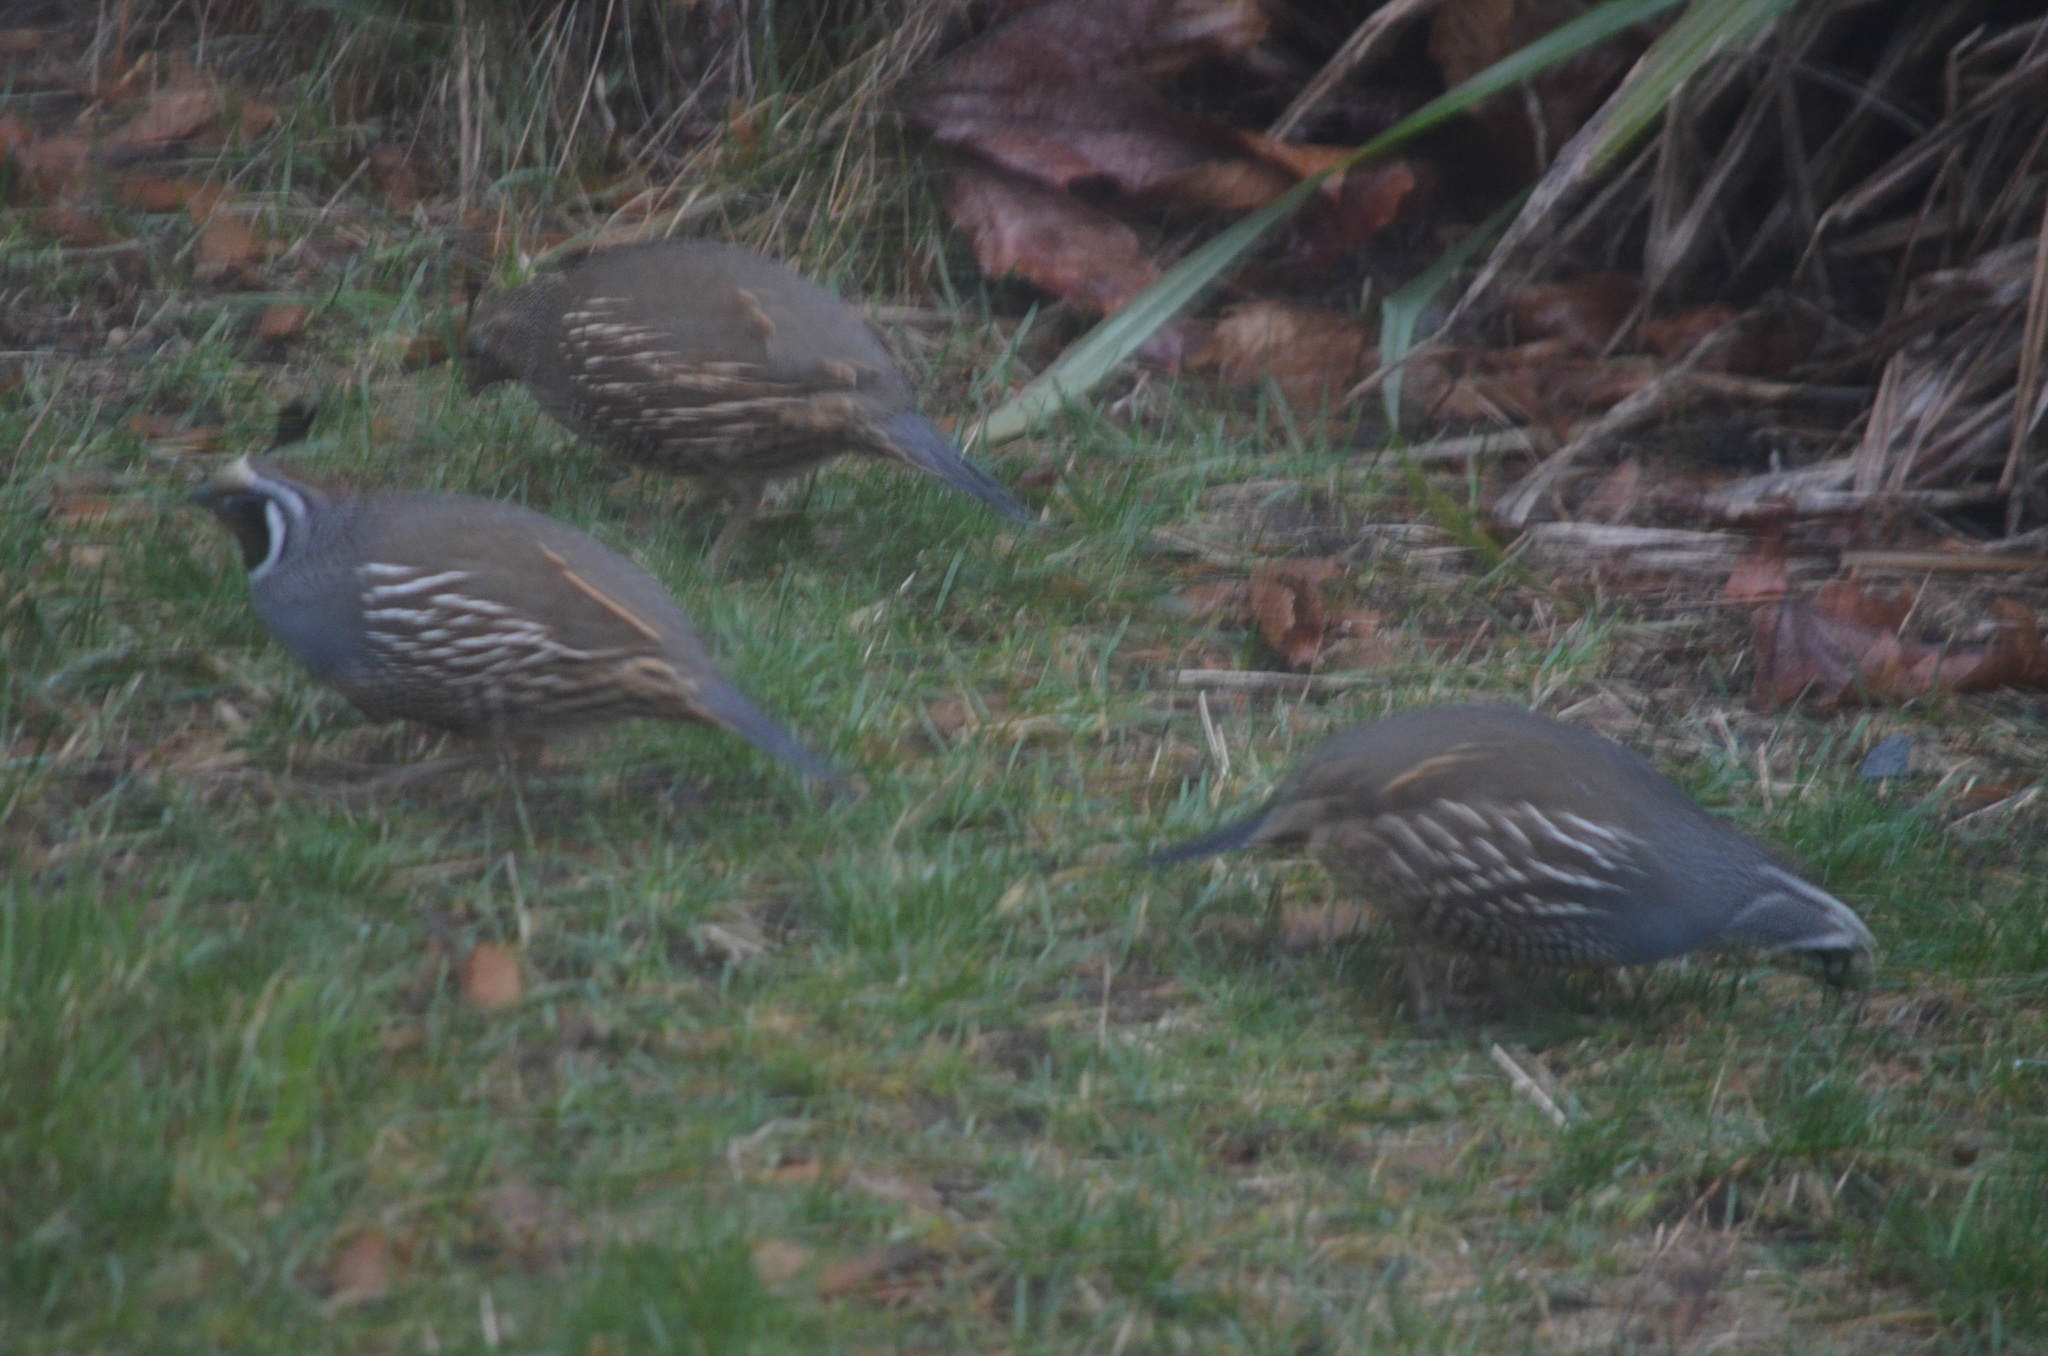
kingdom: Animalia
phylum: Chordata
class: Aves
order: Galliformes
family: Odontophoridae
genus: Callipepla
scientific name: Callipepla californica
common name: California quail
